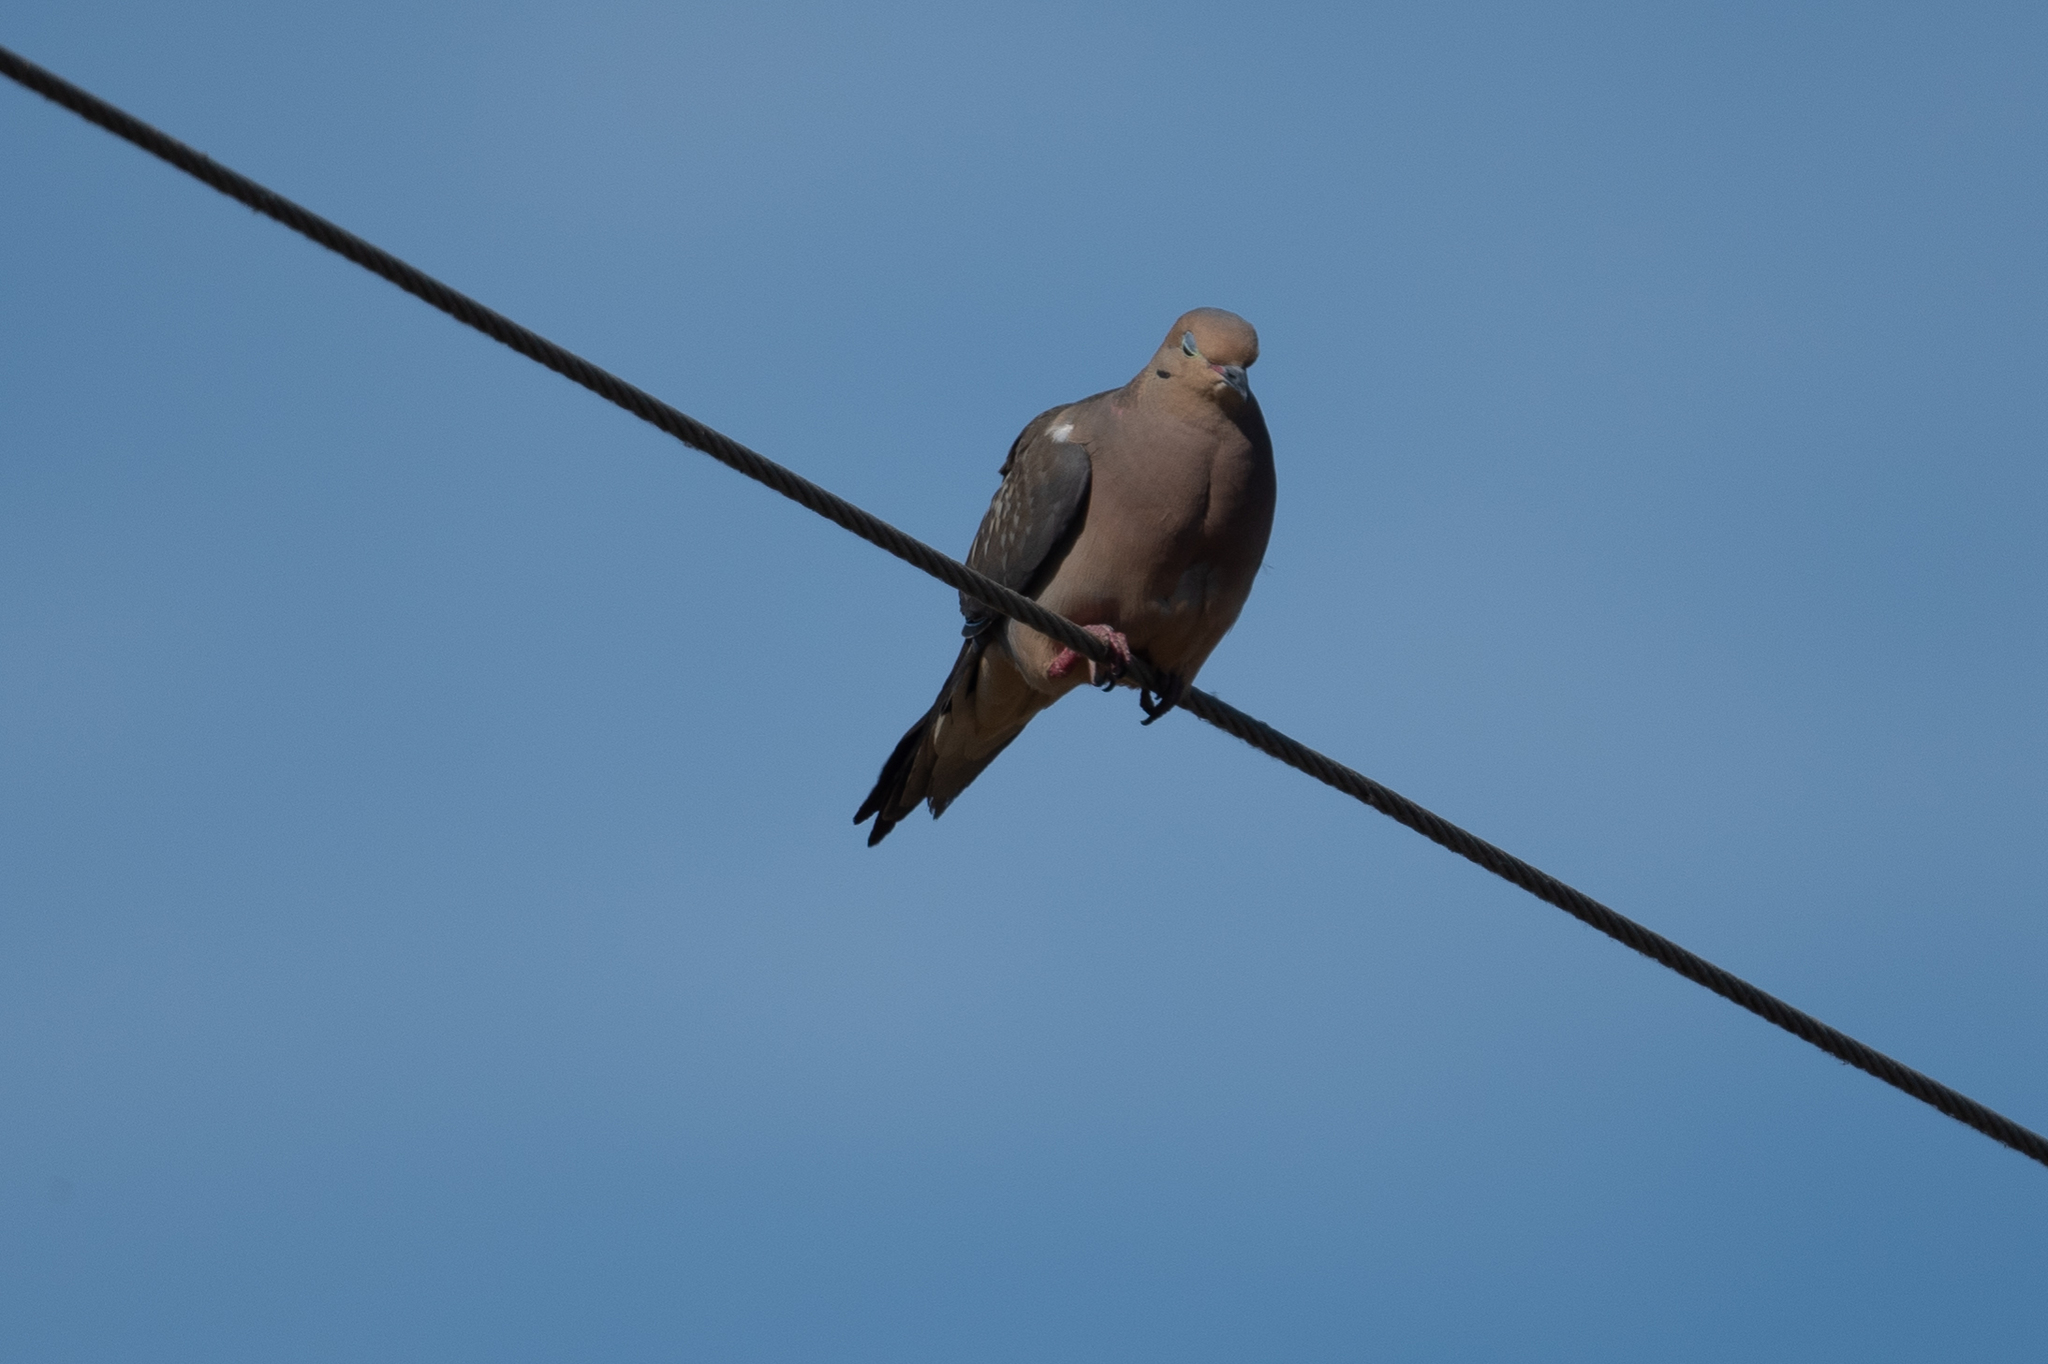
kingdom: Animalia
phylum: Chordata
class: Aves
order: Columbiformes
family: Columbidae
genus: Zenaida
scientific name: Zenaida macroura
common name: Mourning dove
